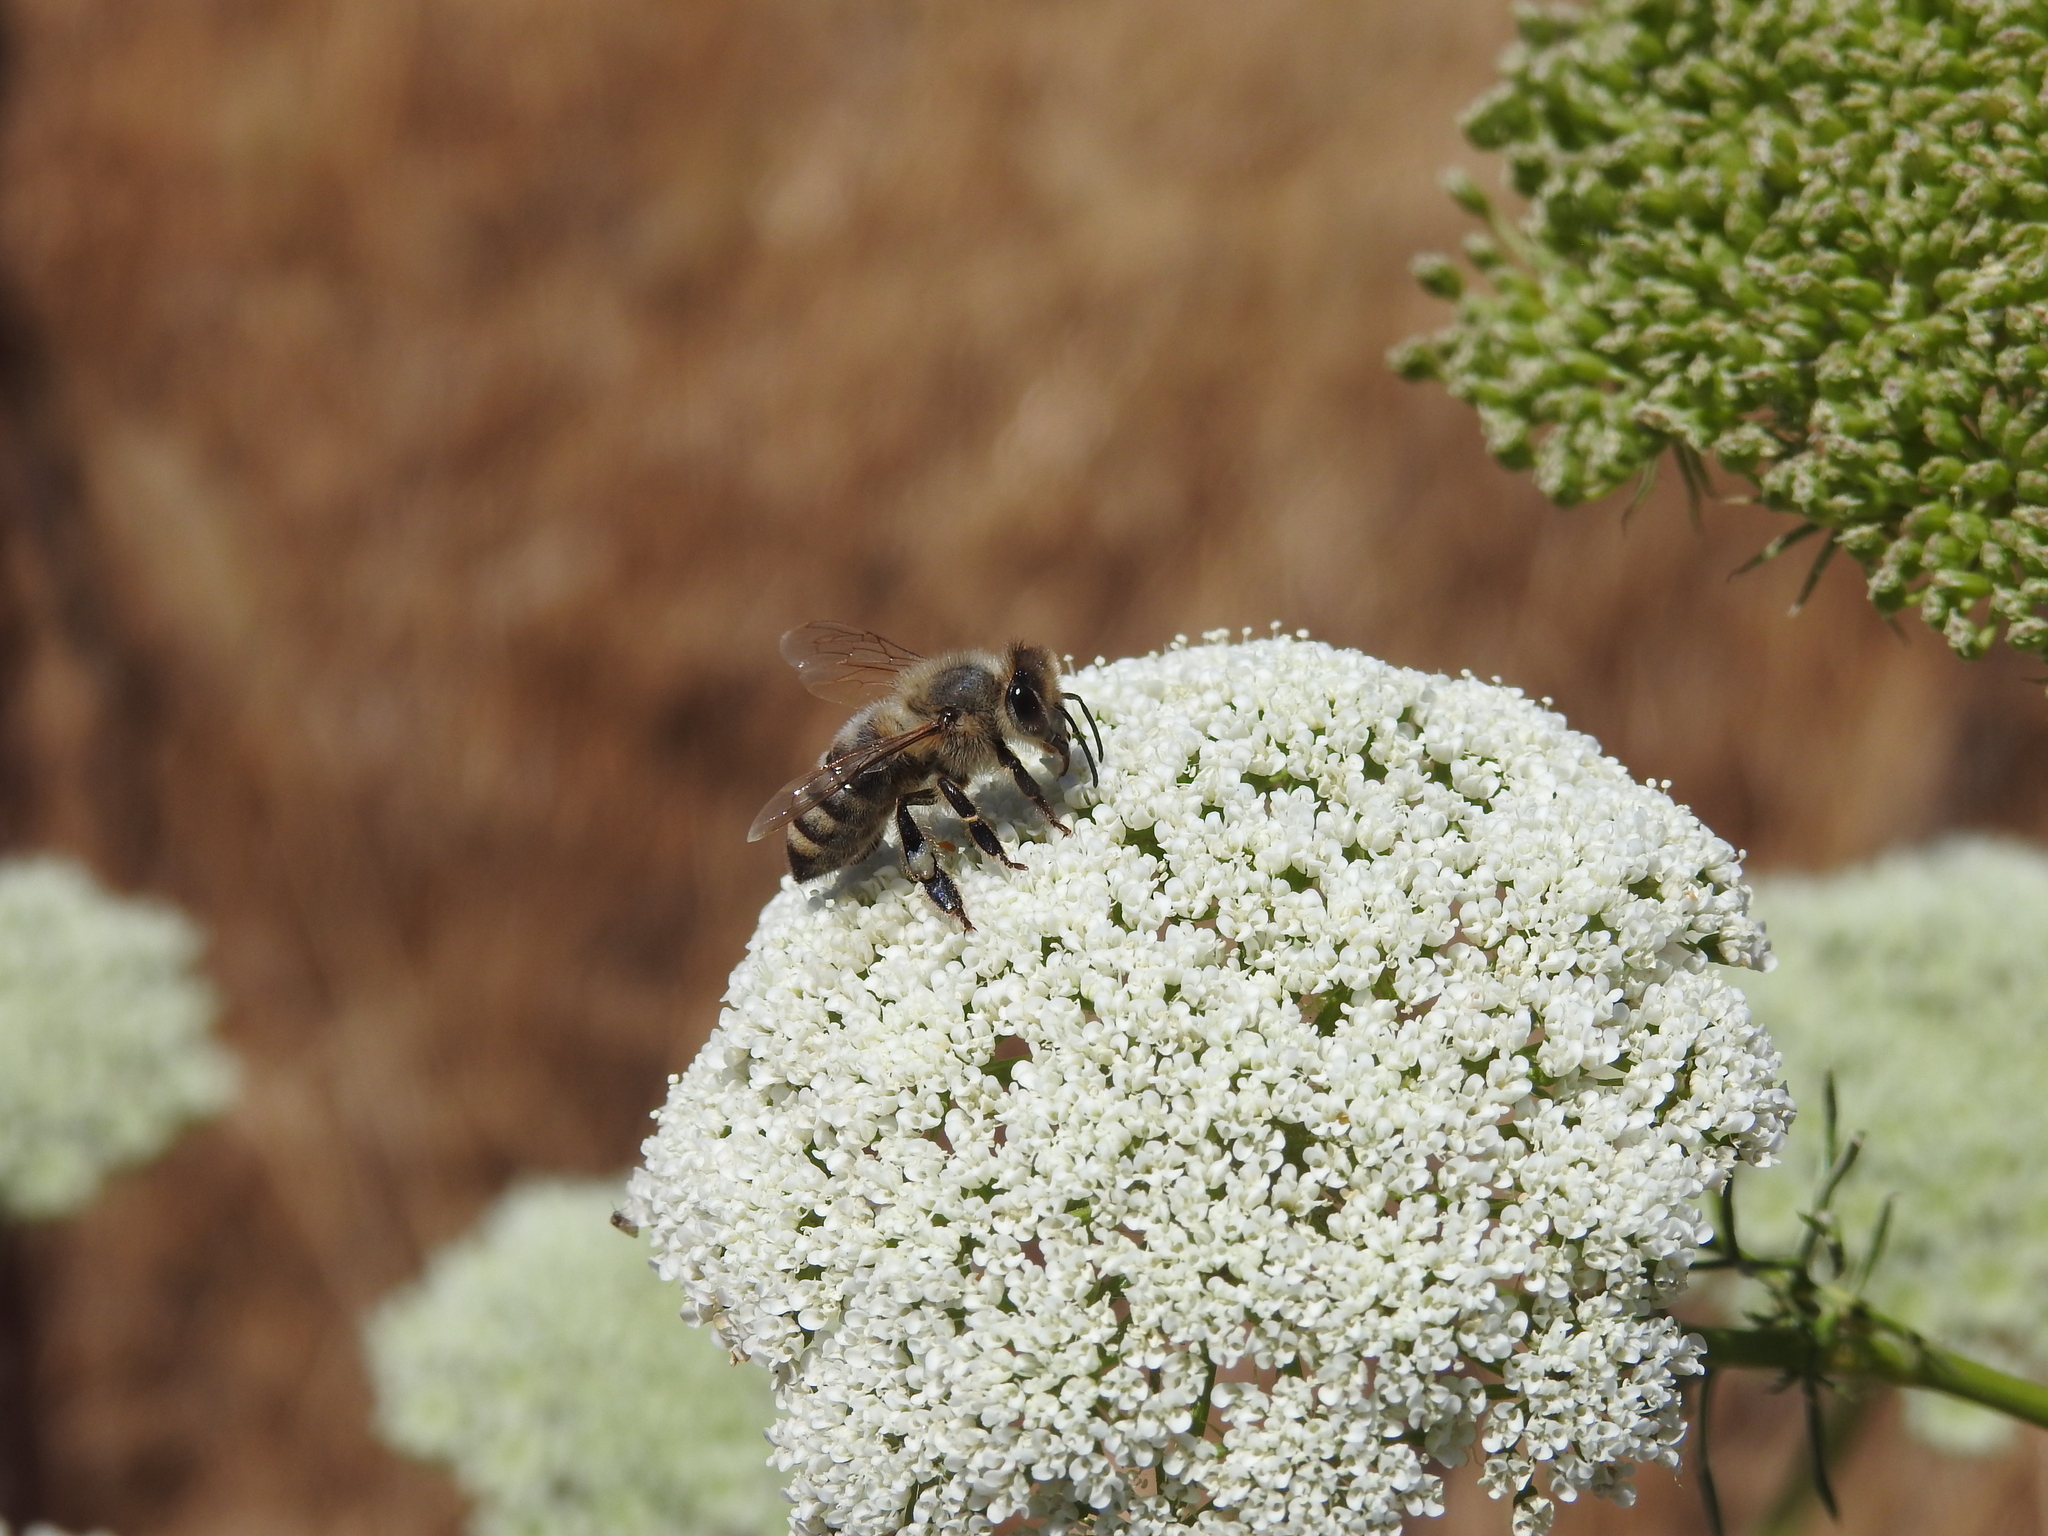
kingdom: Animalia
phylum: Arthropoda
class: Insecta
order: Hymenoptera
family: Apidae
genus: Apis
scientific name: Apis mellifera
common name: Honey bee
